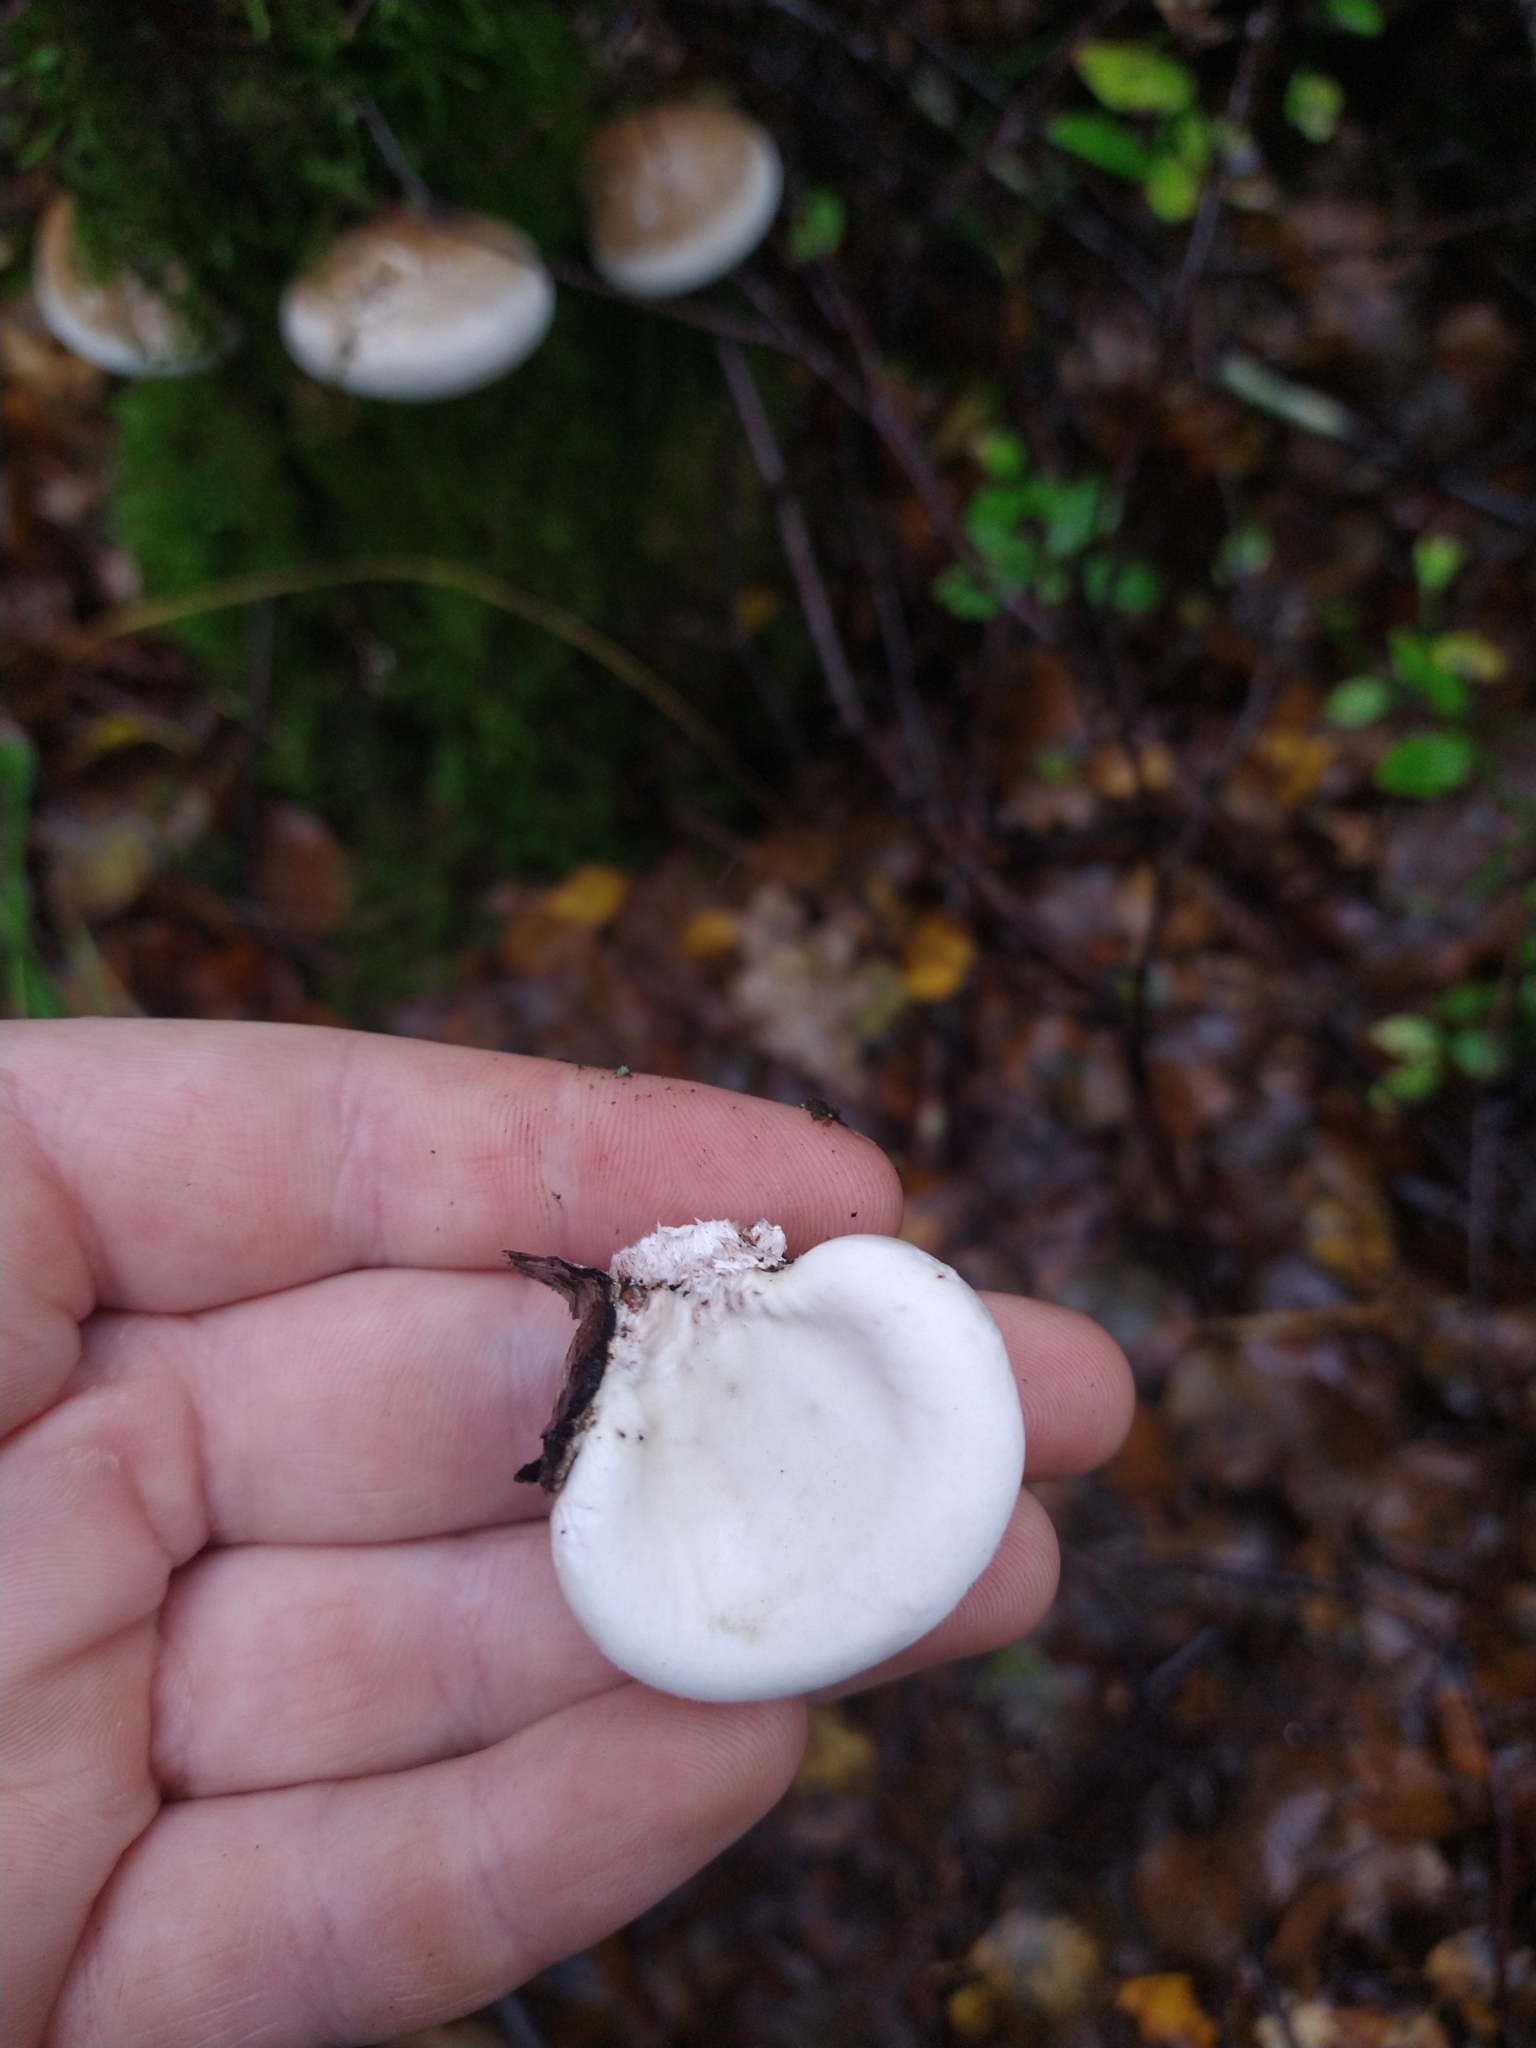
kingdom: Fungi
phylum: Basidiomycota
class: Agaricomycetes
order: Polyporales
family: Fomitopsidaceae
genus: Fomitopsis
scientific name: Fomitopsis betulina
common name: Birch polypore
